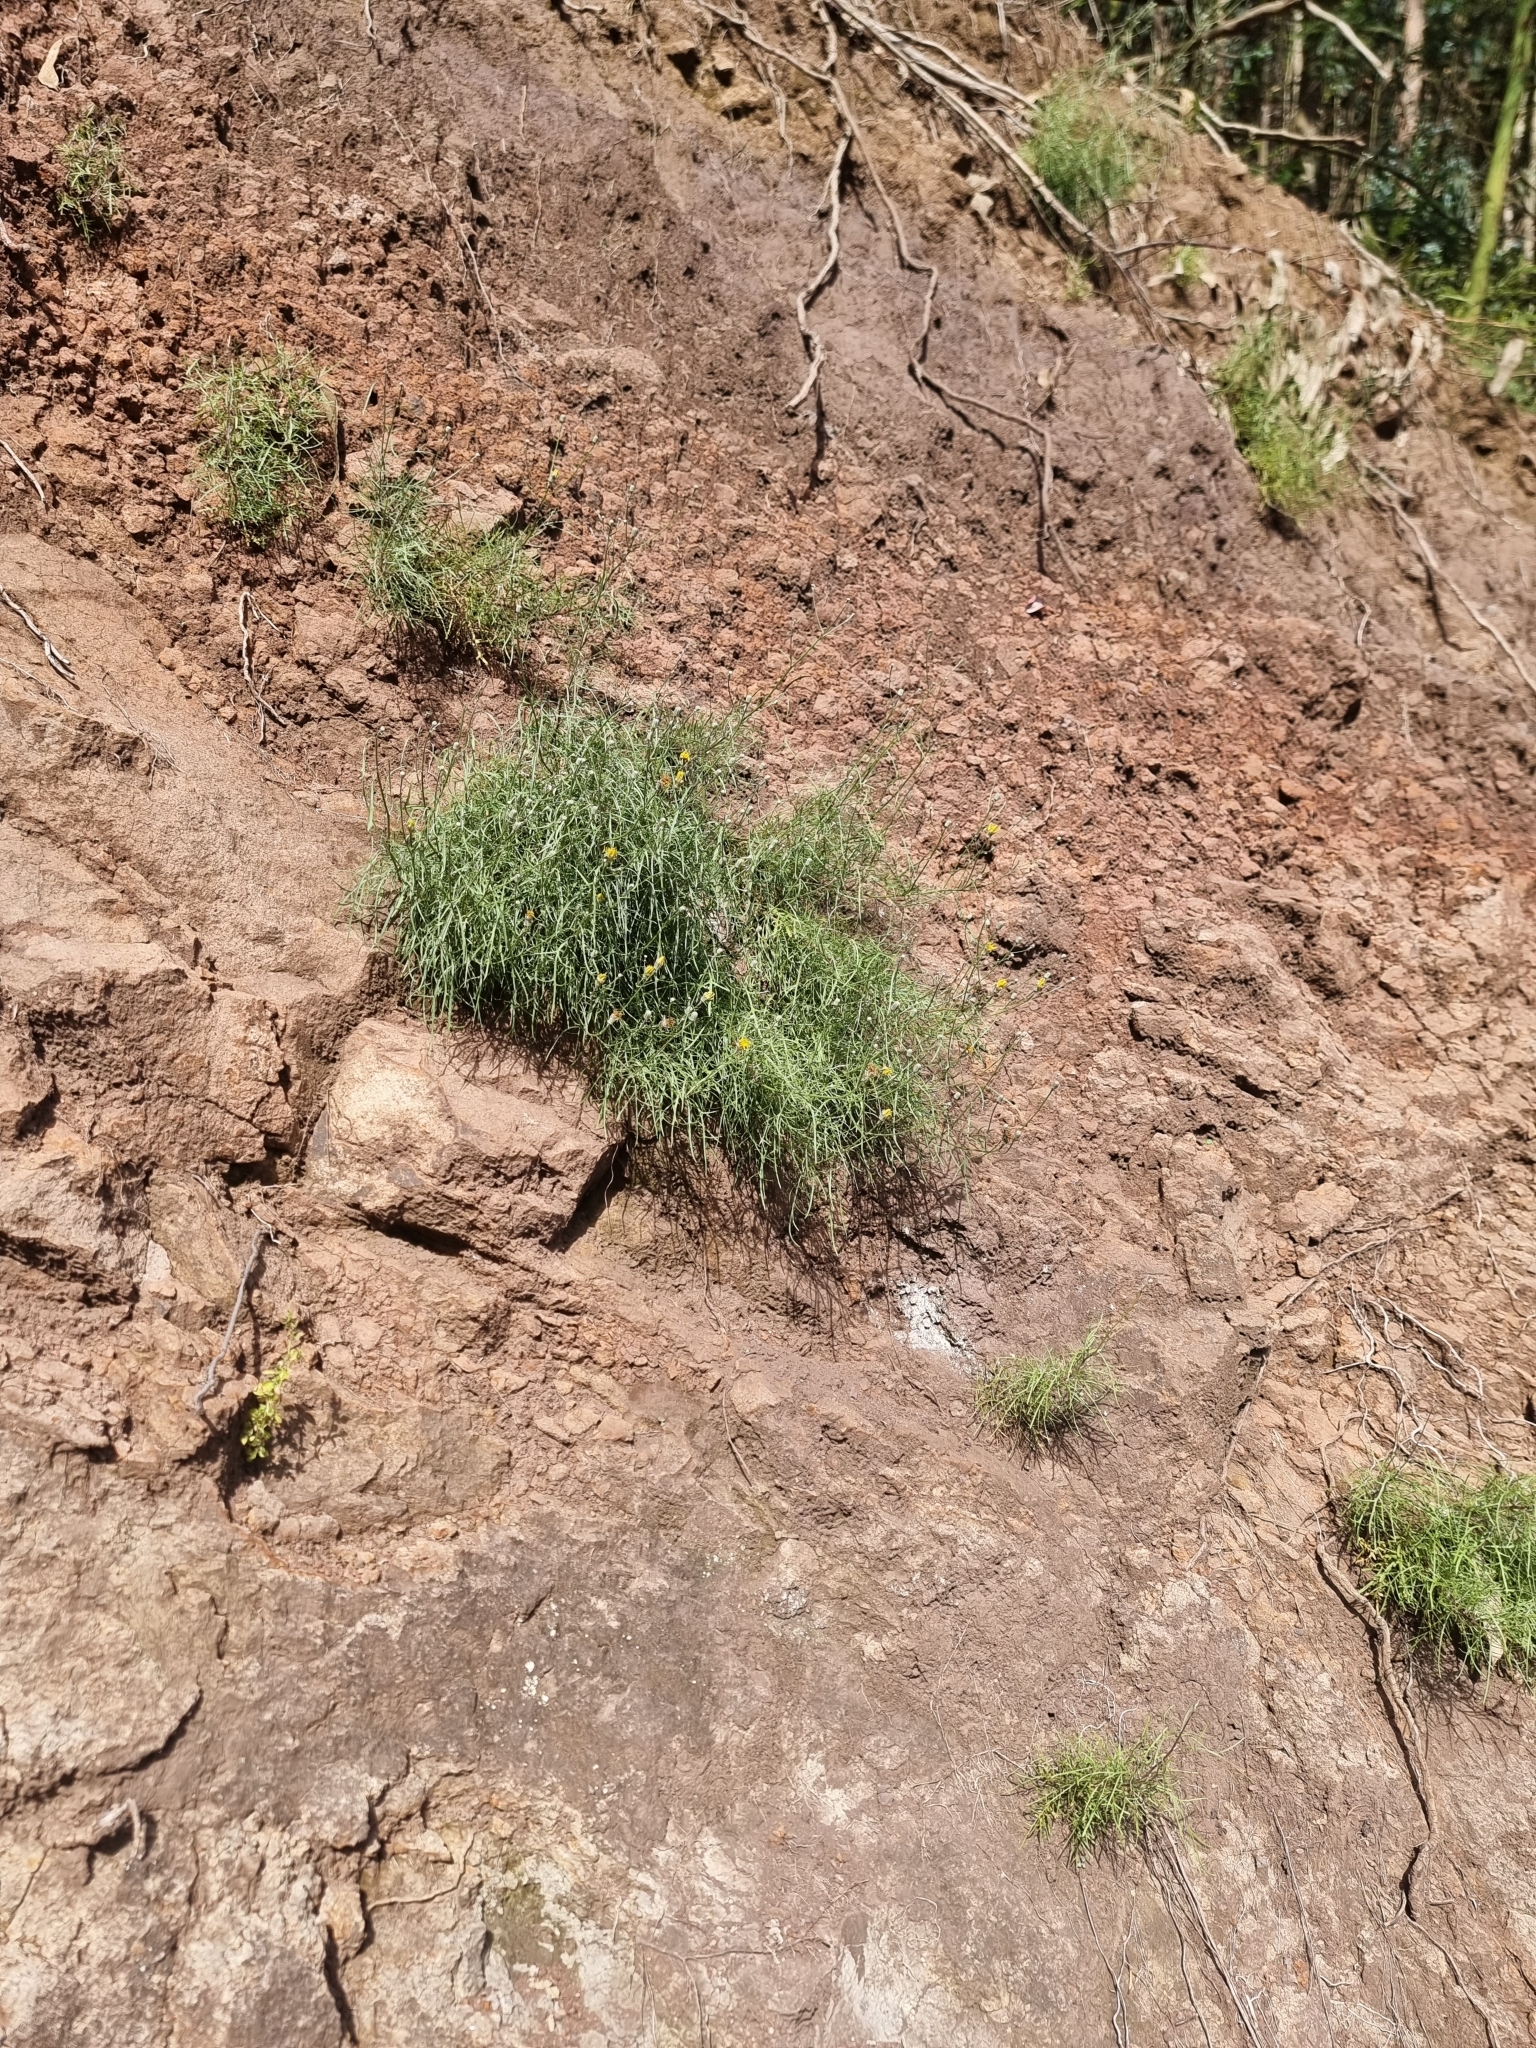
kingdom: Plantae
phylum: Tracheophyta
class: Magnoliopsida
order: Asterales
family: Asteraceae
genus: Tolpis
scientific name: Tolpis succulenta
